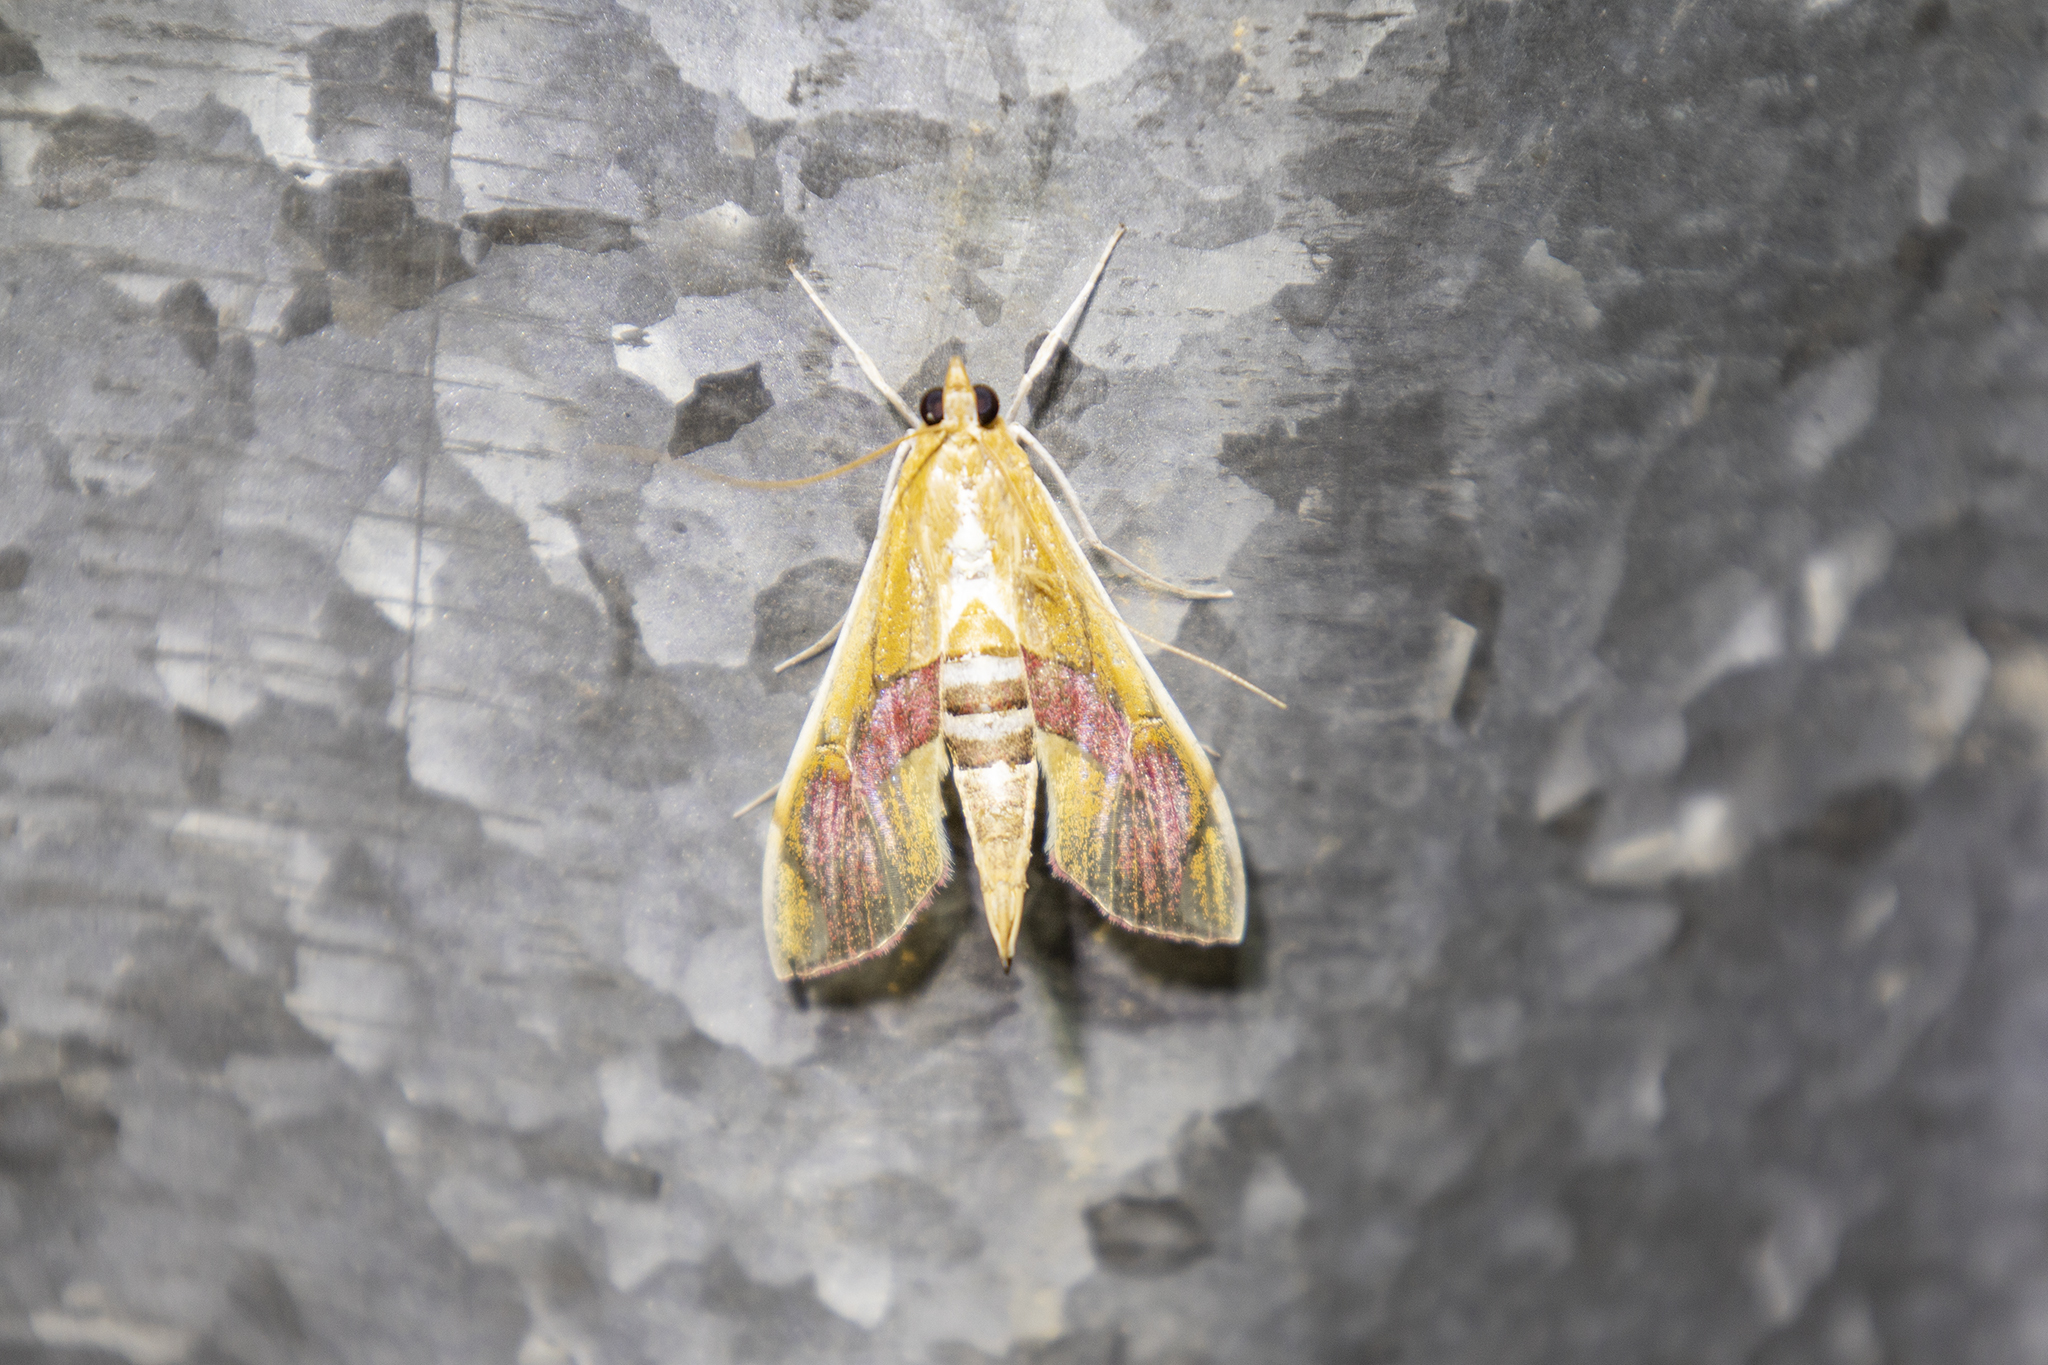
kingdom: Animalia
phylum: Arthropoda
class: Insecta
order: Lepidoptera
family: Crambidae
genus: Agathodes
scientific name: Agathodes ostentalis
